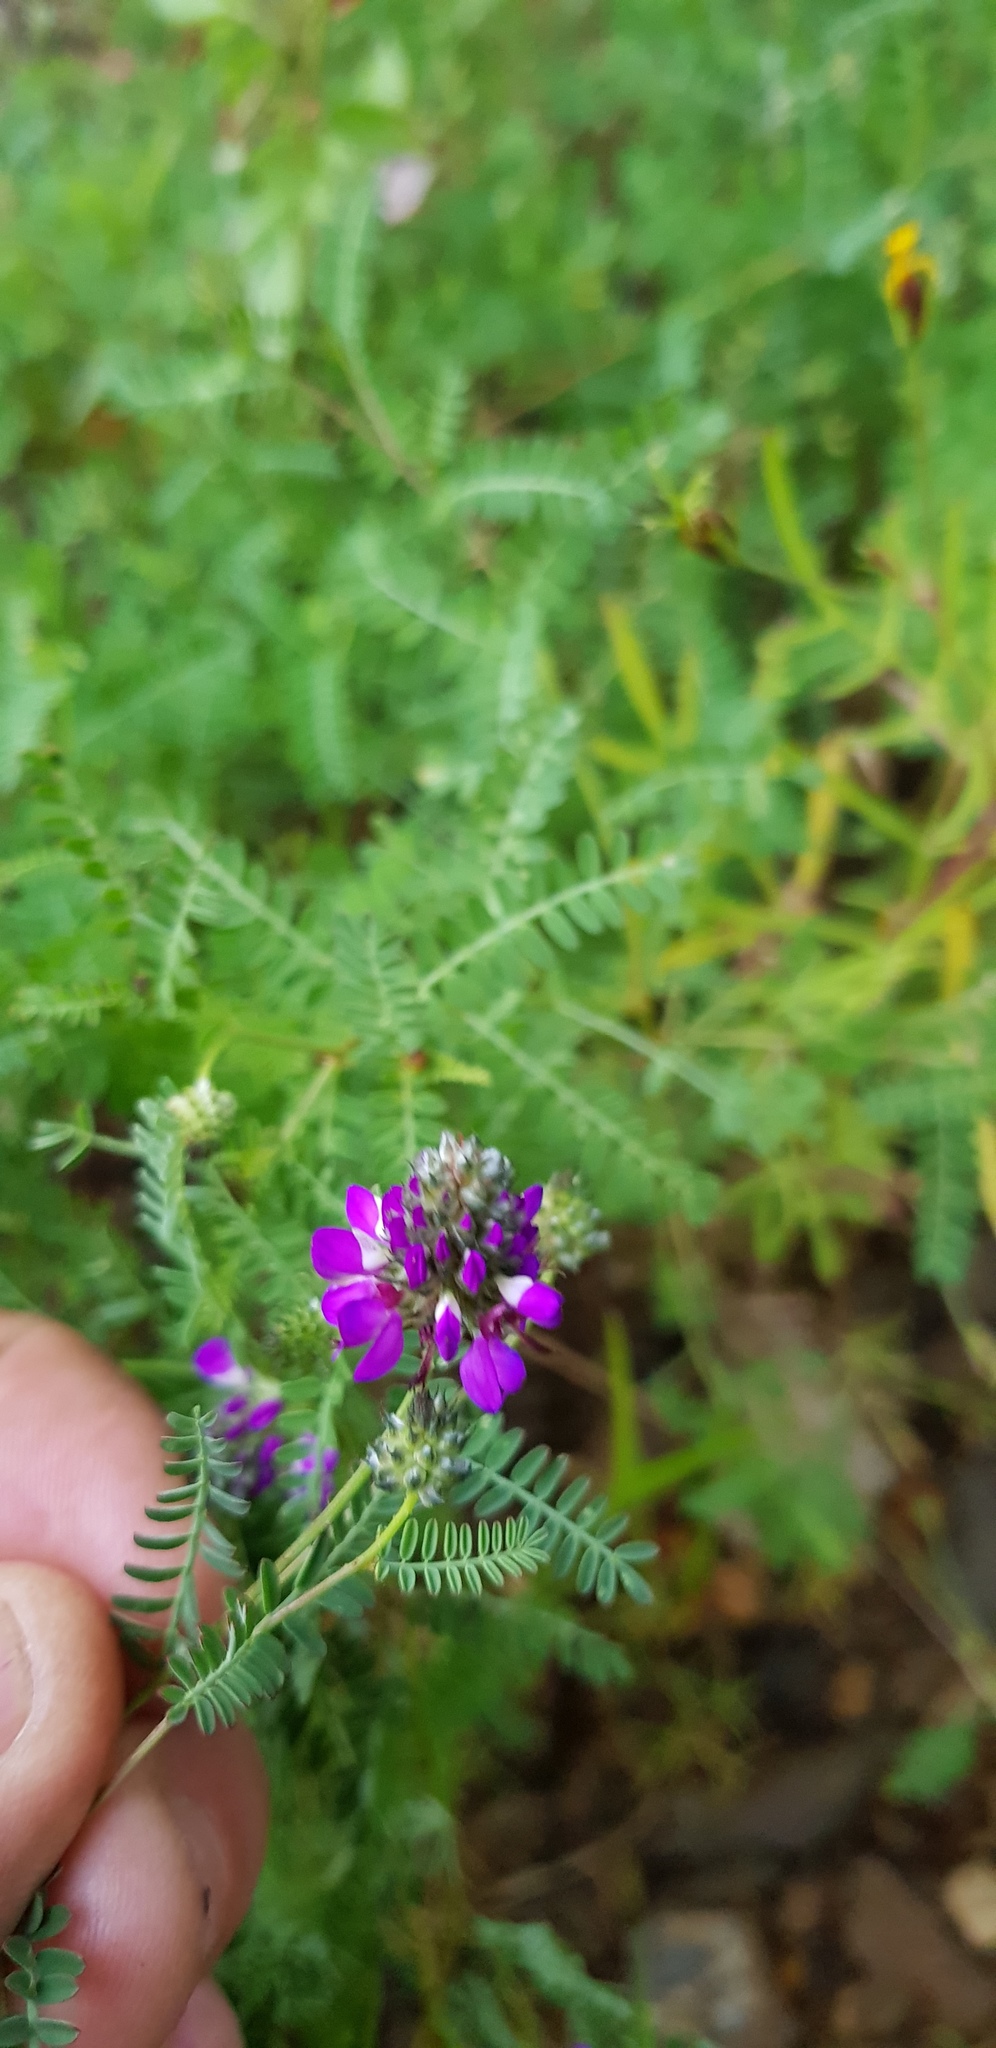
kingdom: Plantae
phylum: Tracheophyta
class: Magnoliopsida
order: Fabales
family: Fabaceae
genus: Dalea
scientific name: Dalea foliolosa
